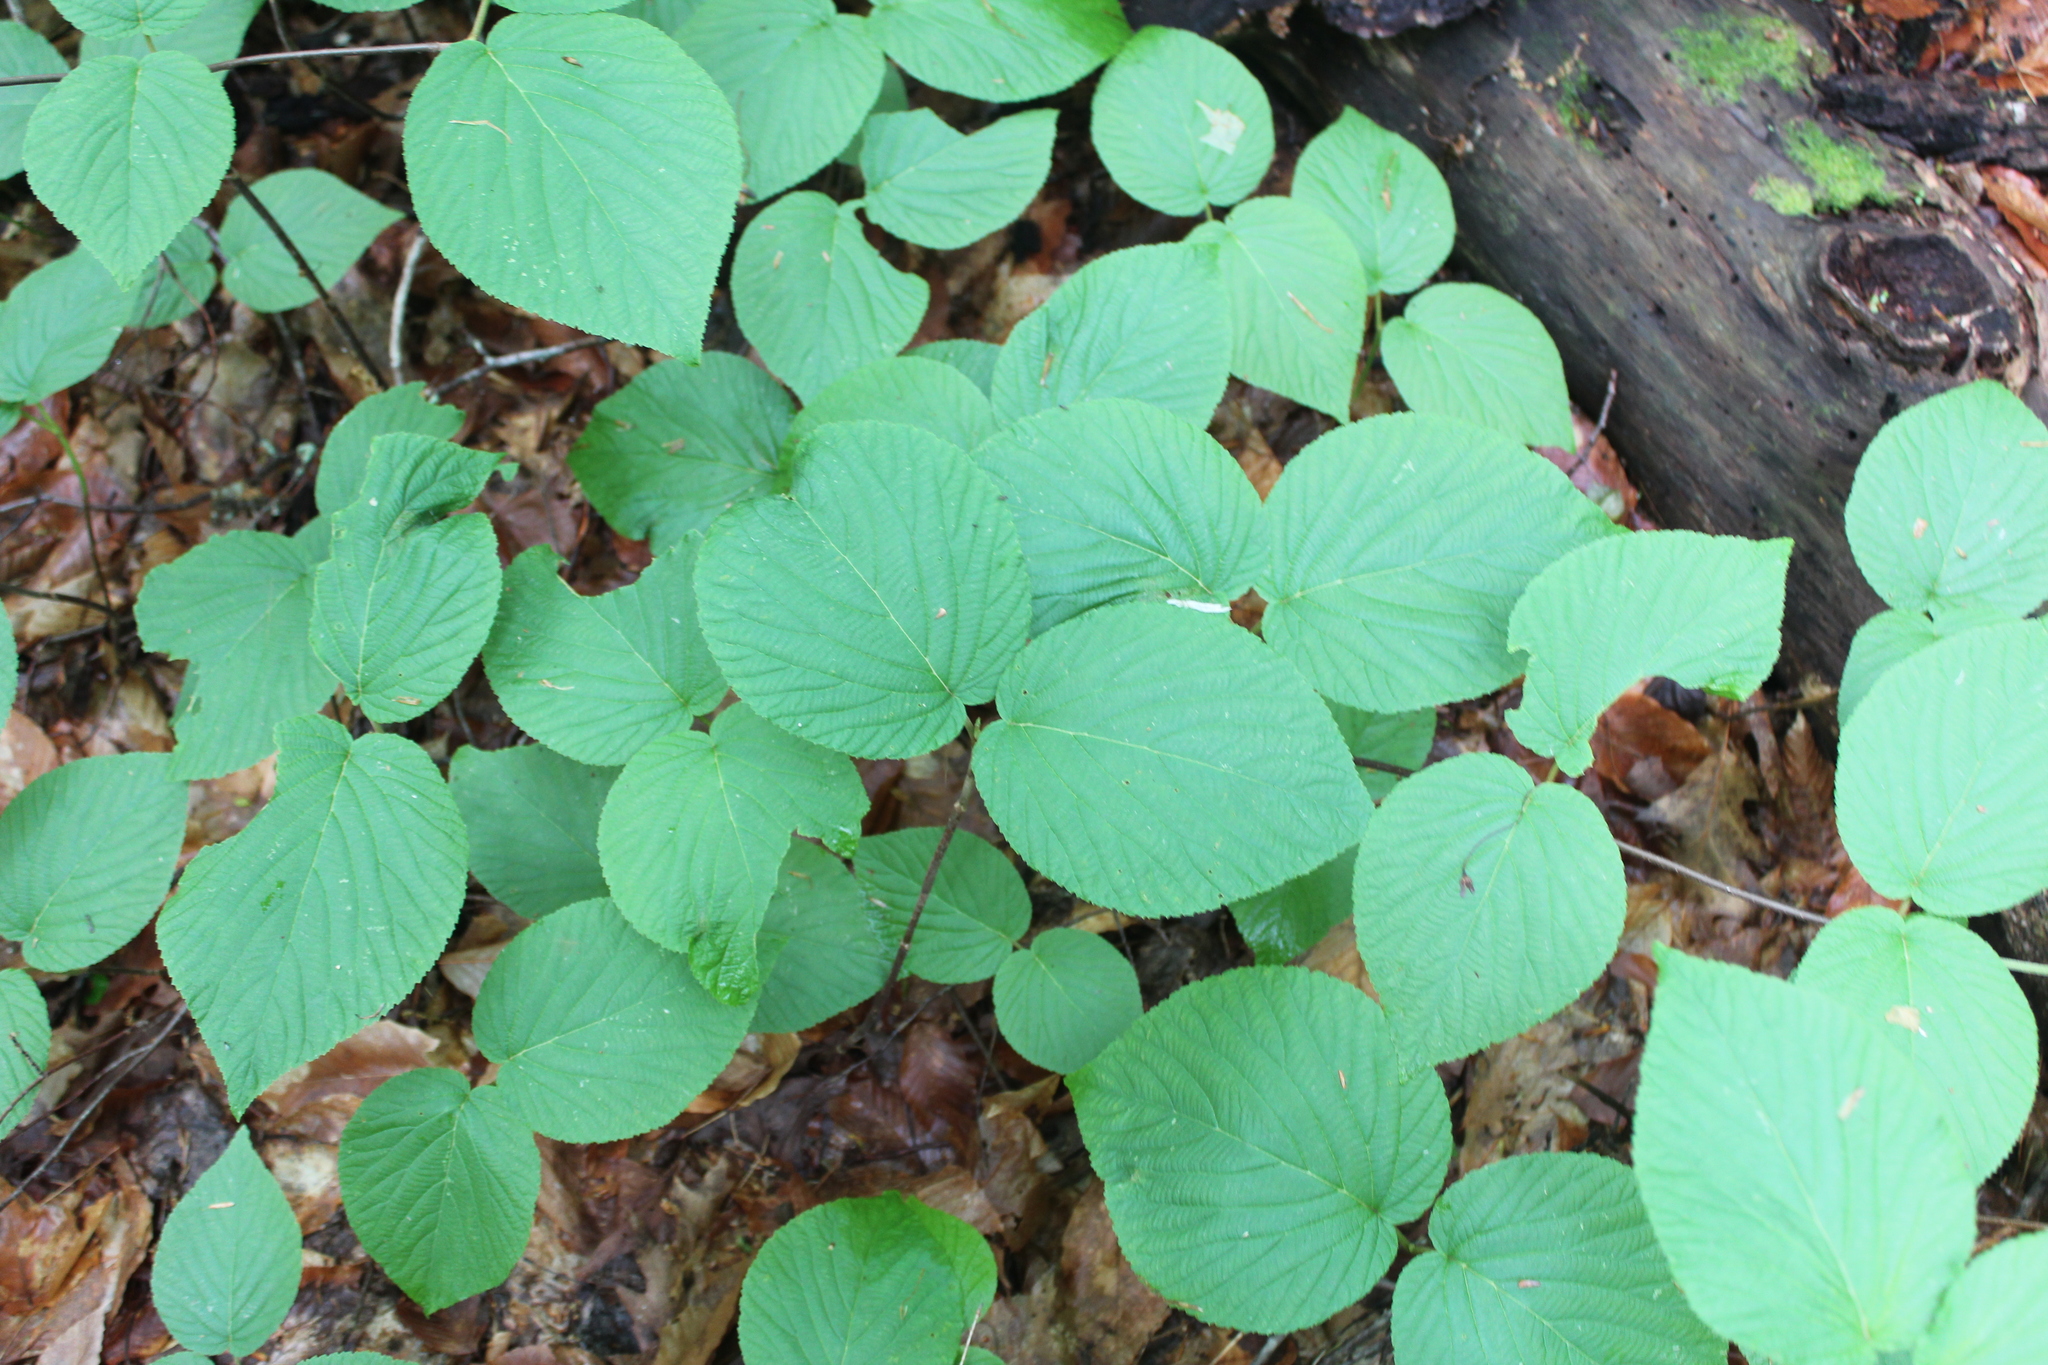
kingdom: Plantae
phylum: Tracheophyta
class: Magnoliopsida
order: Dipsacales
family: Viburnaceae
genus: Viburnum
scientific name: Viburnum lantanoides
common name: Hobblebush
